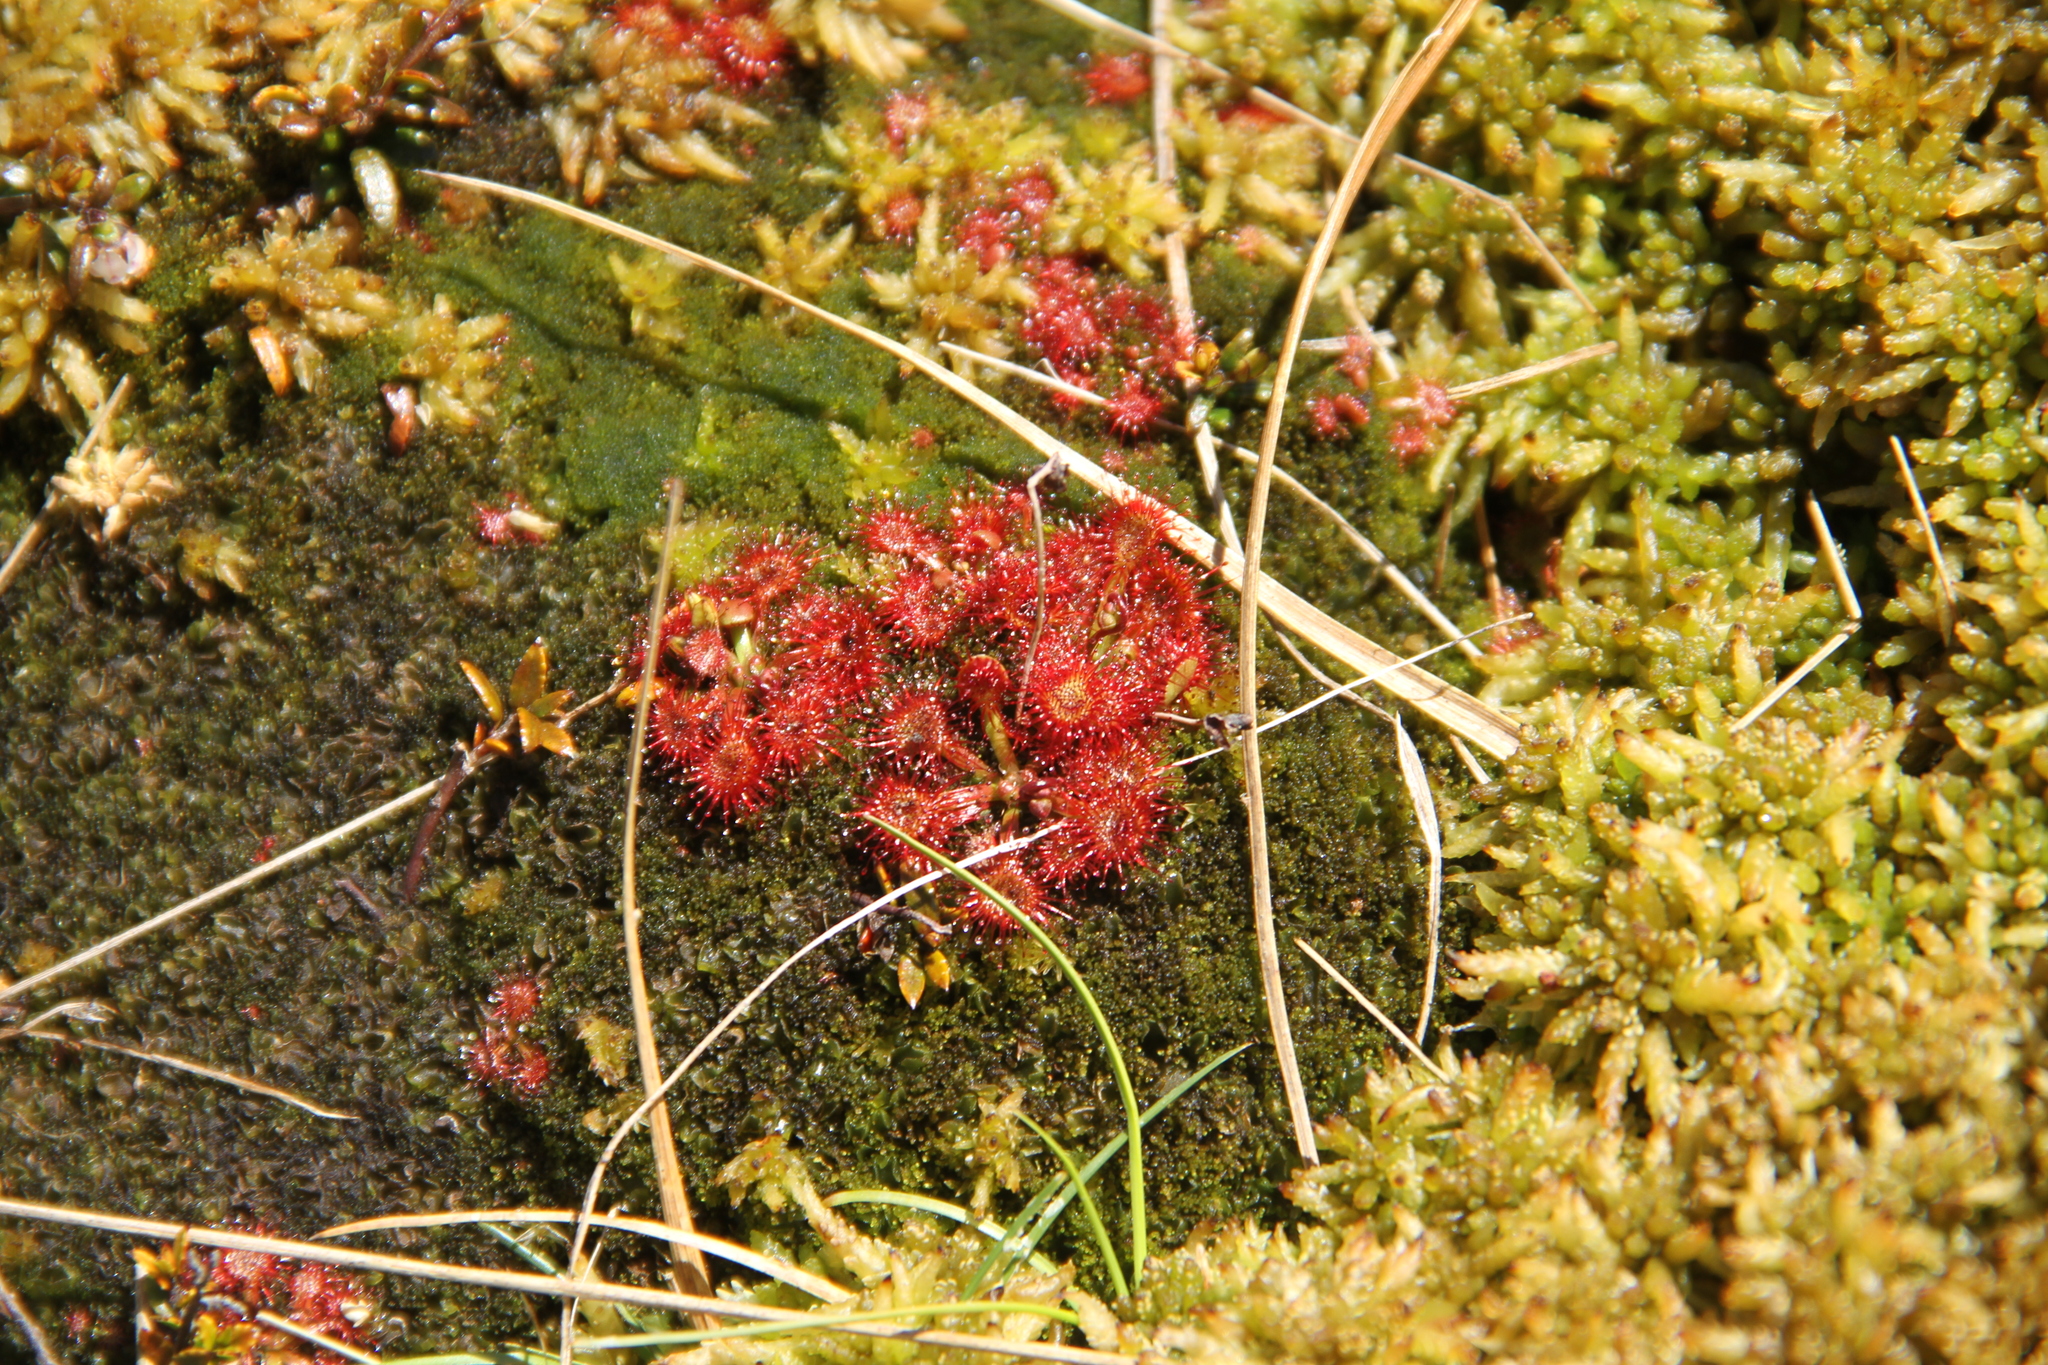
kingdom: Plantae
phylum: Tracheophyta
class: Magnoliopsida
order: Caryophyllales
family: Droseraceae
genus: Drosera
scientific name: Drosera spatulata
